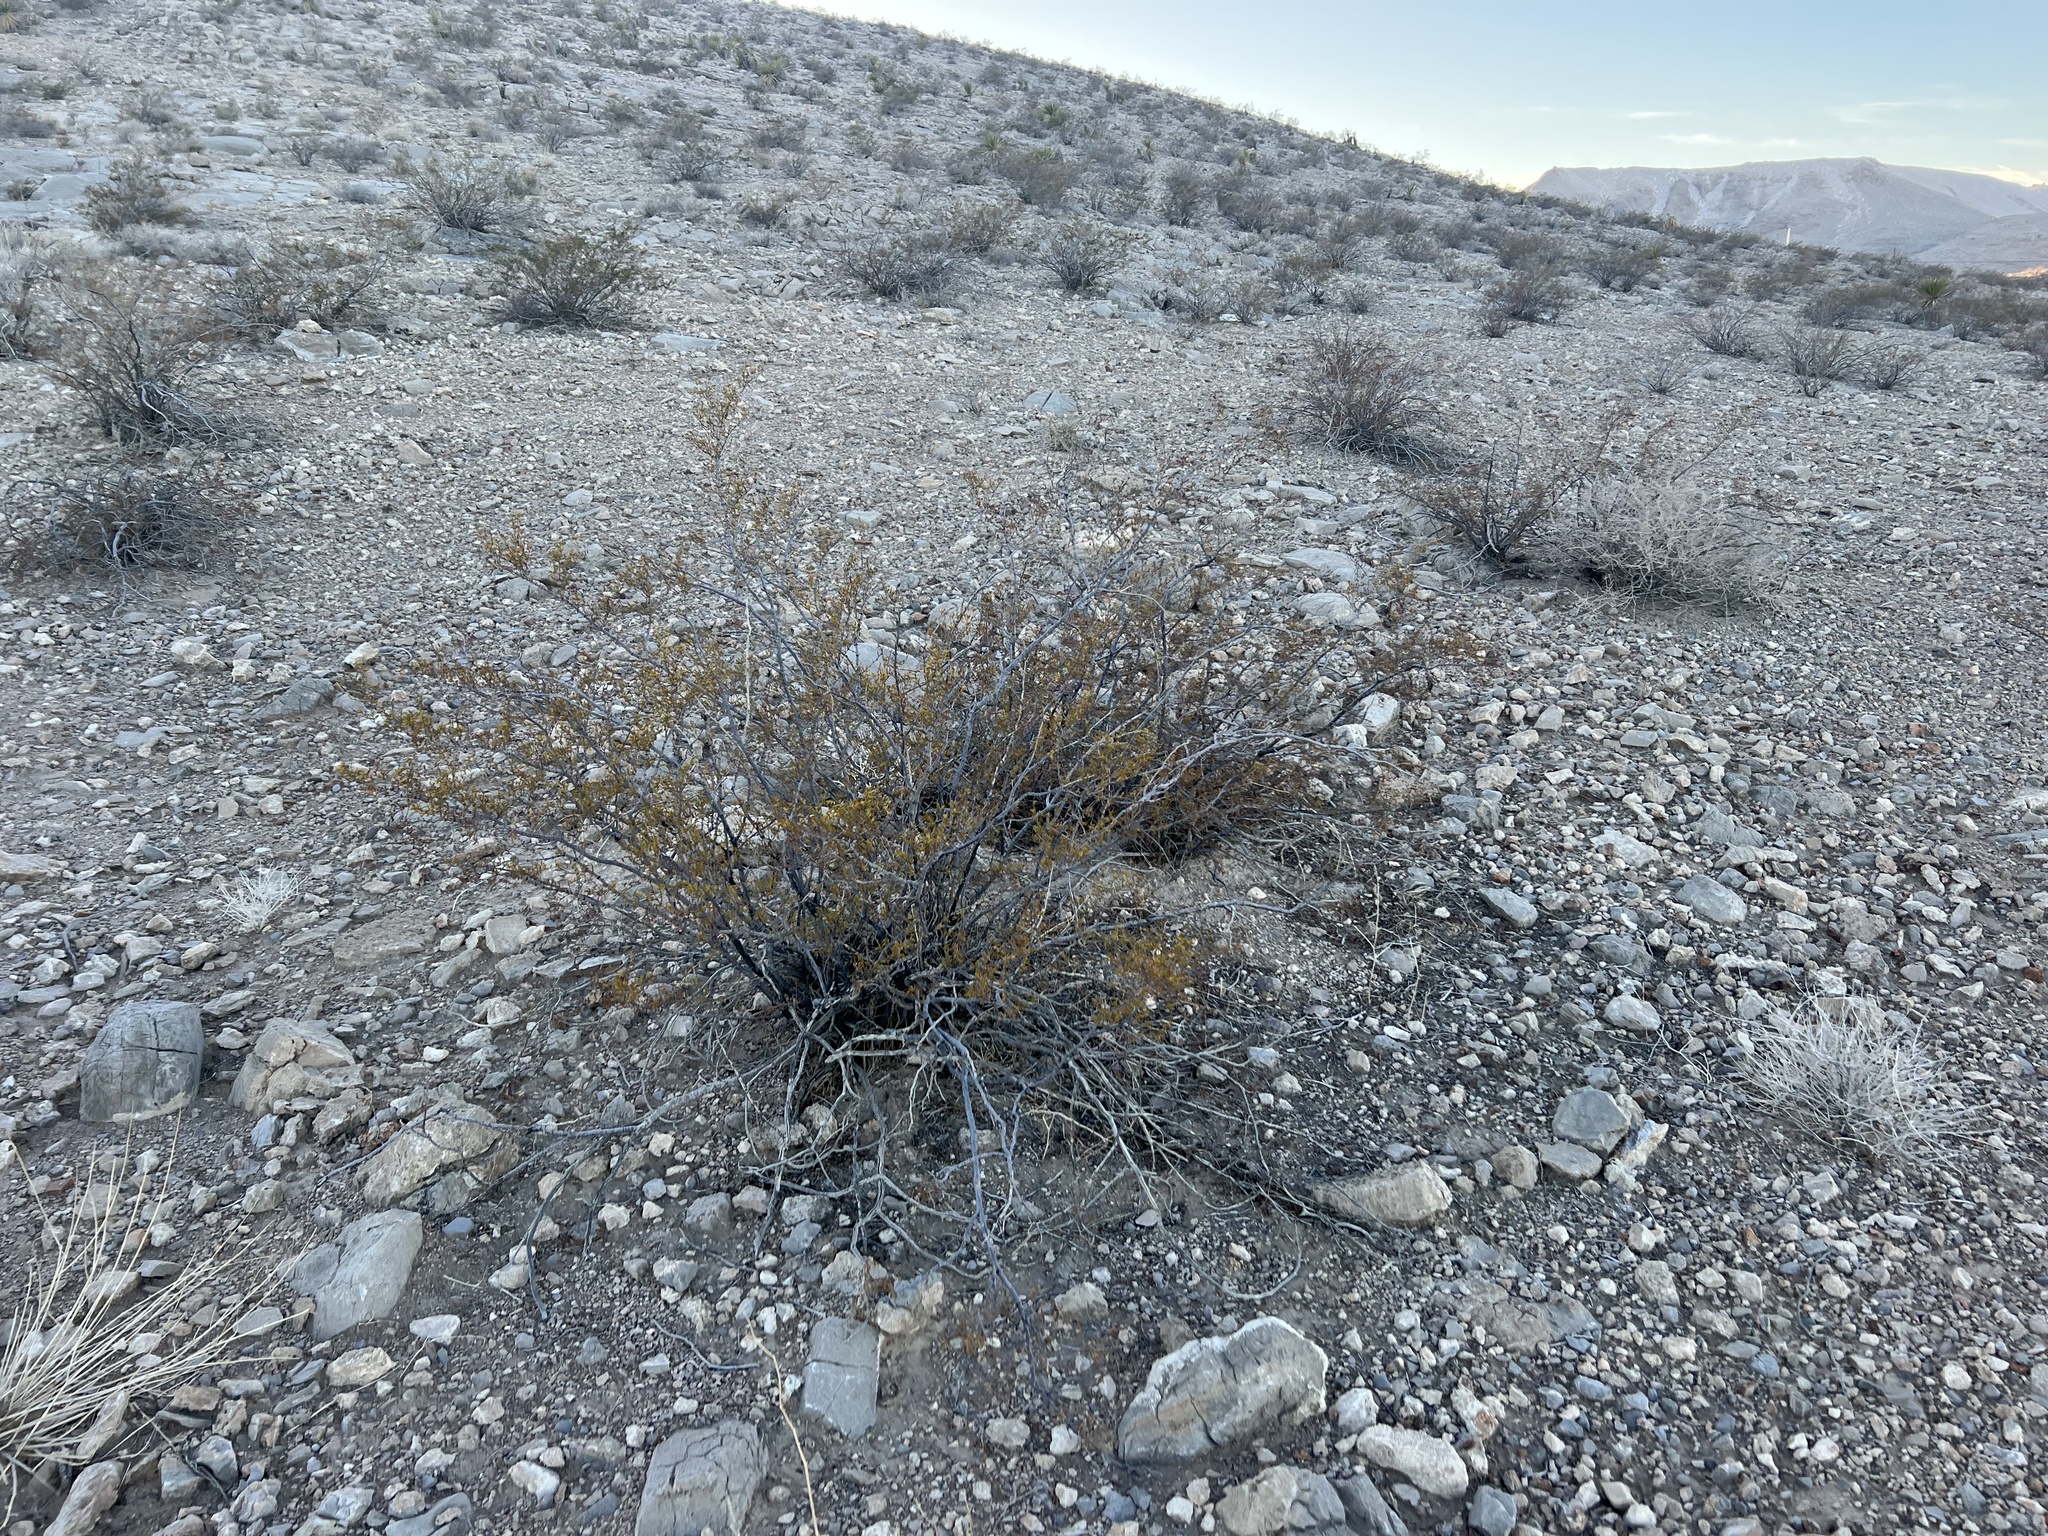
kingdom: Plantae
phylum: Tracheophyta
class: Magnoliopsida
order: Zygophyllales
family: Zygophyllaceae
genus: Larrea
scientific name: Larrea tridentata
